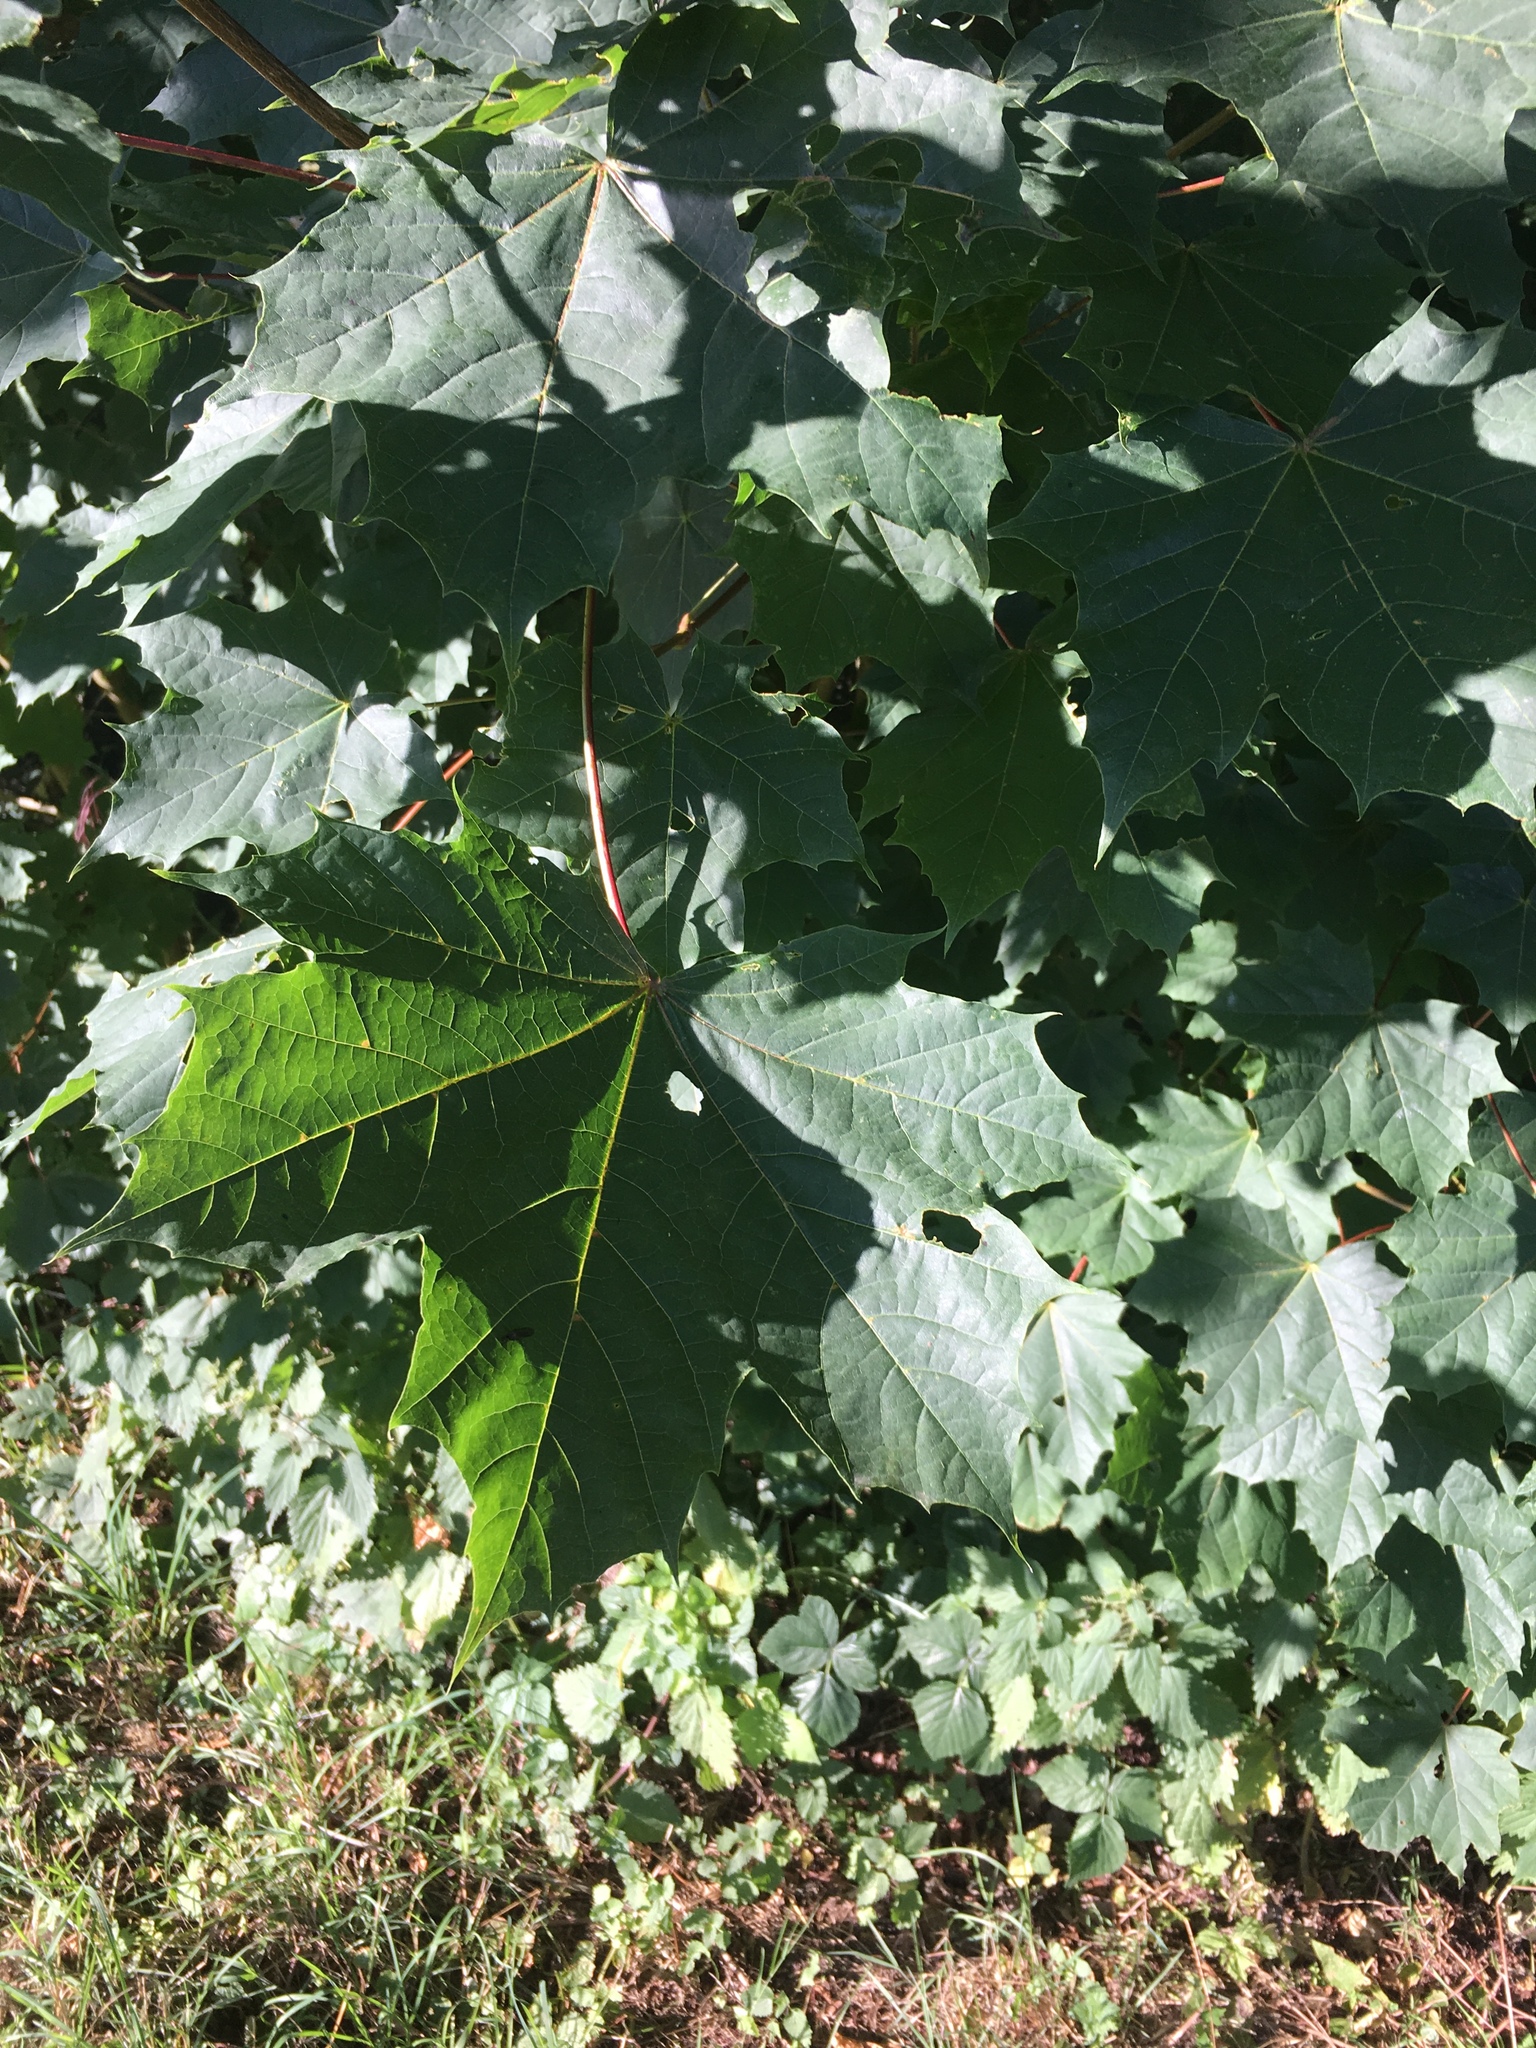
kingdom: Plantae
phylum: Tracheophyta
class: Magnoliopsida
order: Sapindales
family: Sapindaceae
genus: Acer
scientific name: Acer platanoides
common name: Norway maple
